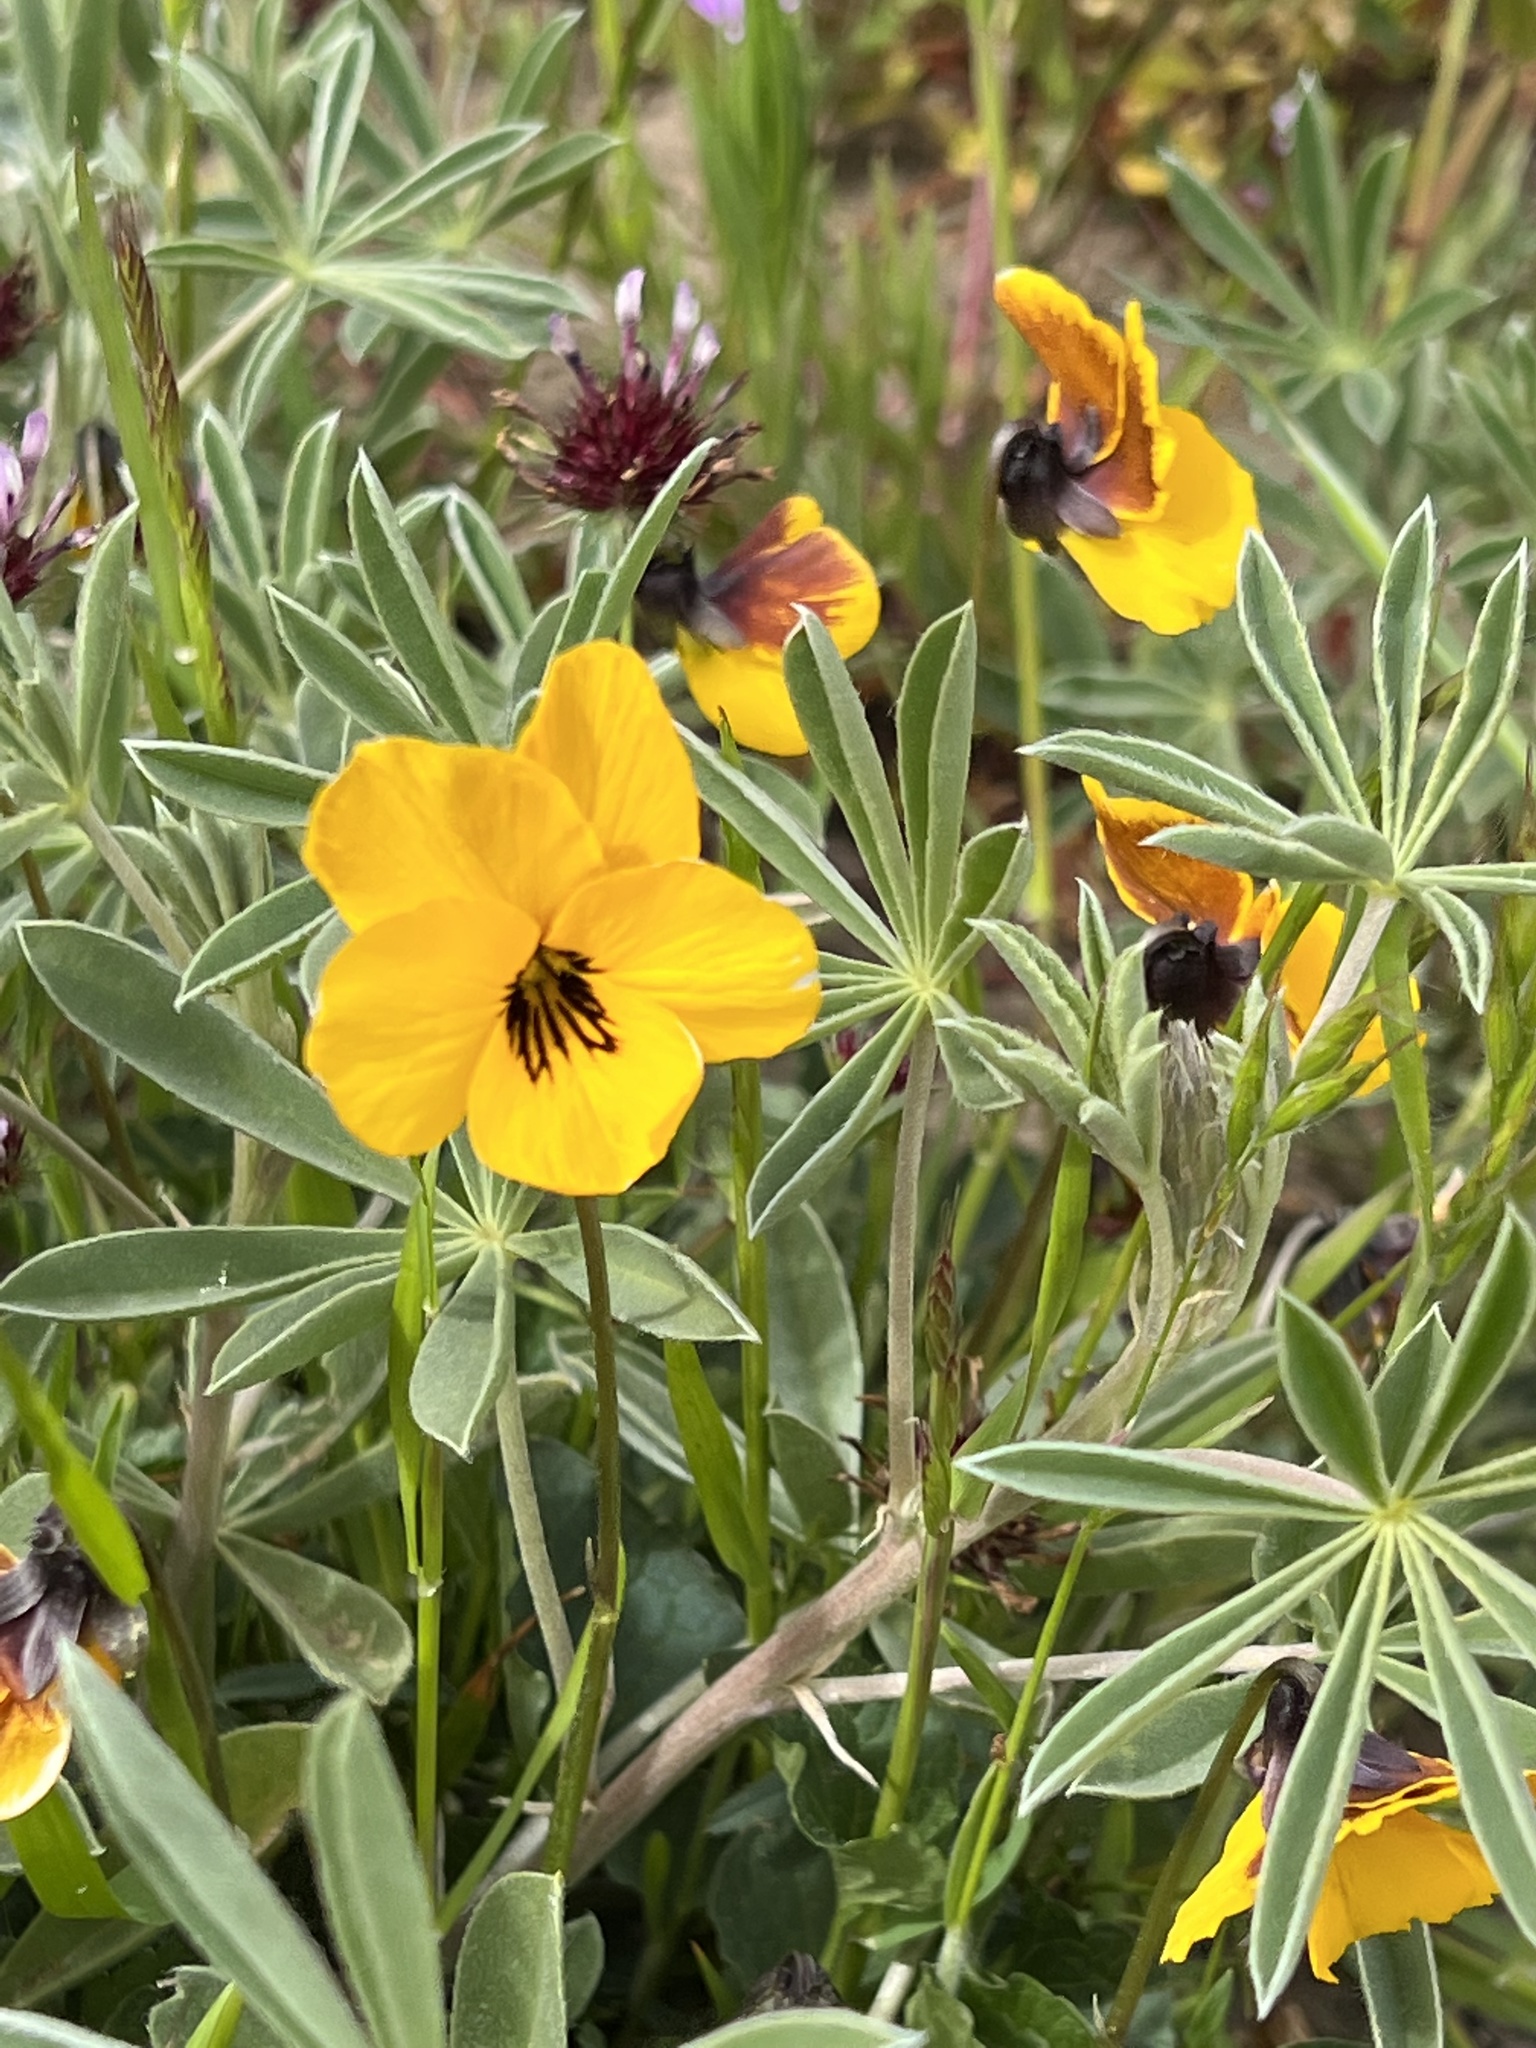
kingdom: Plantae
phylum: Tracheophyta
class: Magnoliopsida
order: Malpighiales
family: Violaceae
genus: Viola
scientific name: Viola pedunculata
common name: California golden violet
